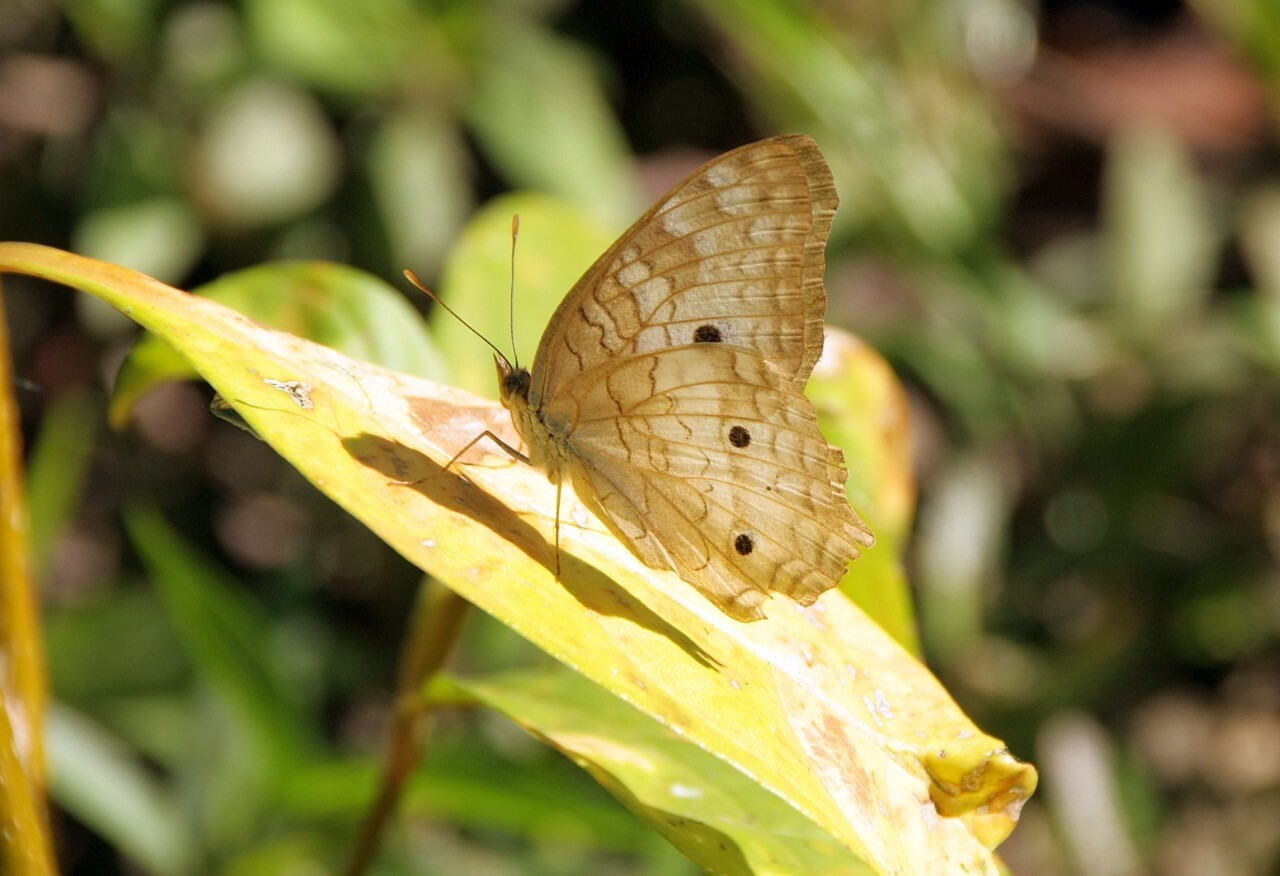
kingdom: Animalia
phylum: Arthropoda
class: Insecta
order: Lepidoptera
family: Nymphalidae
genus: Anartia
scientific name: Anartia jatrophae
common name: White peacock
